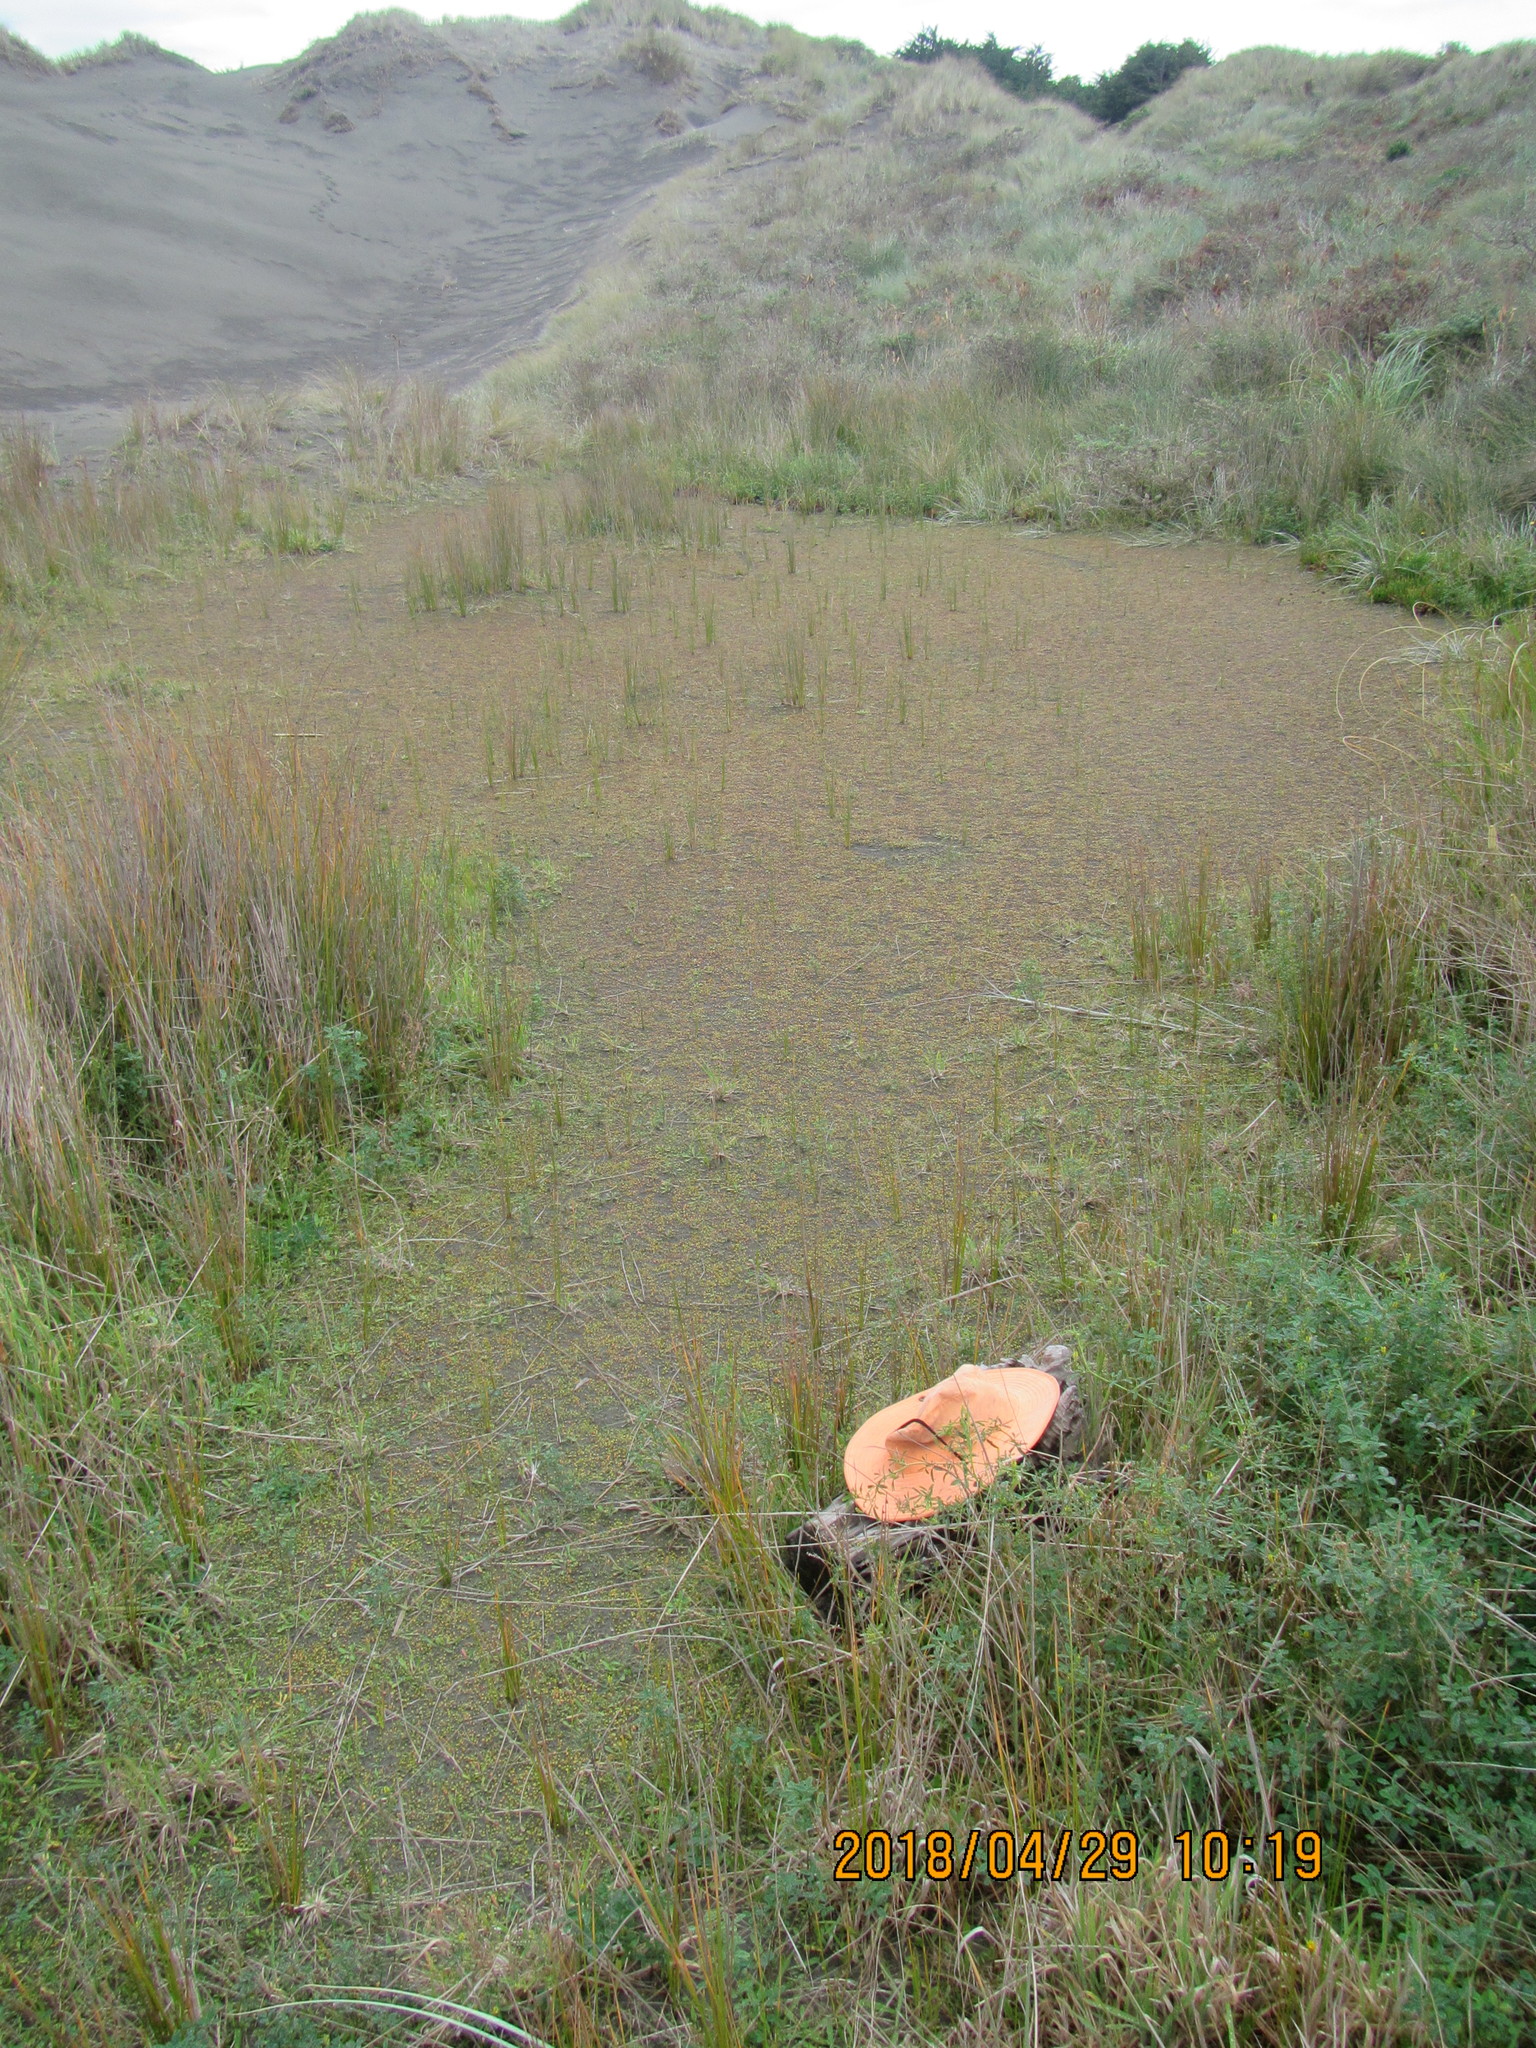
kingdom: Animalia
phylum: Arthropoda
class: Malacostraca
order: Isopoda
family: Porcellionidae
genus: Porcellio
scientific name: Porcellio scaber
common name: Common rough woodlouse
